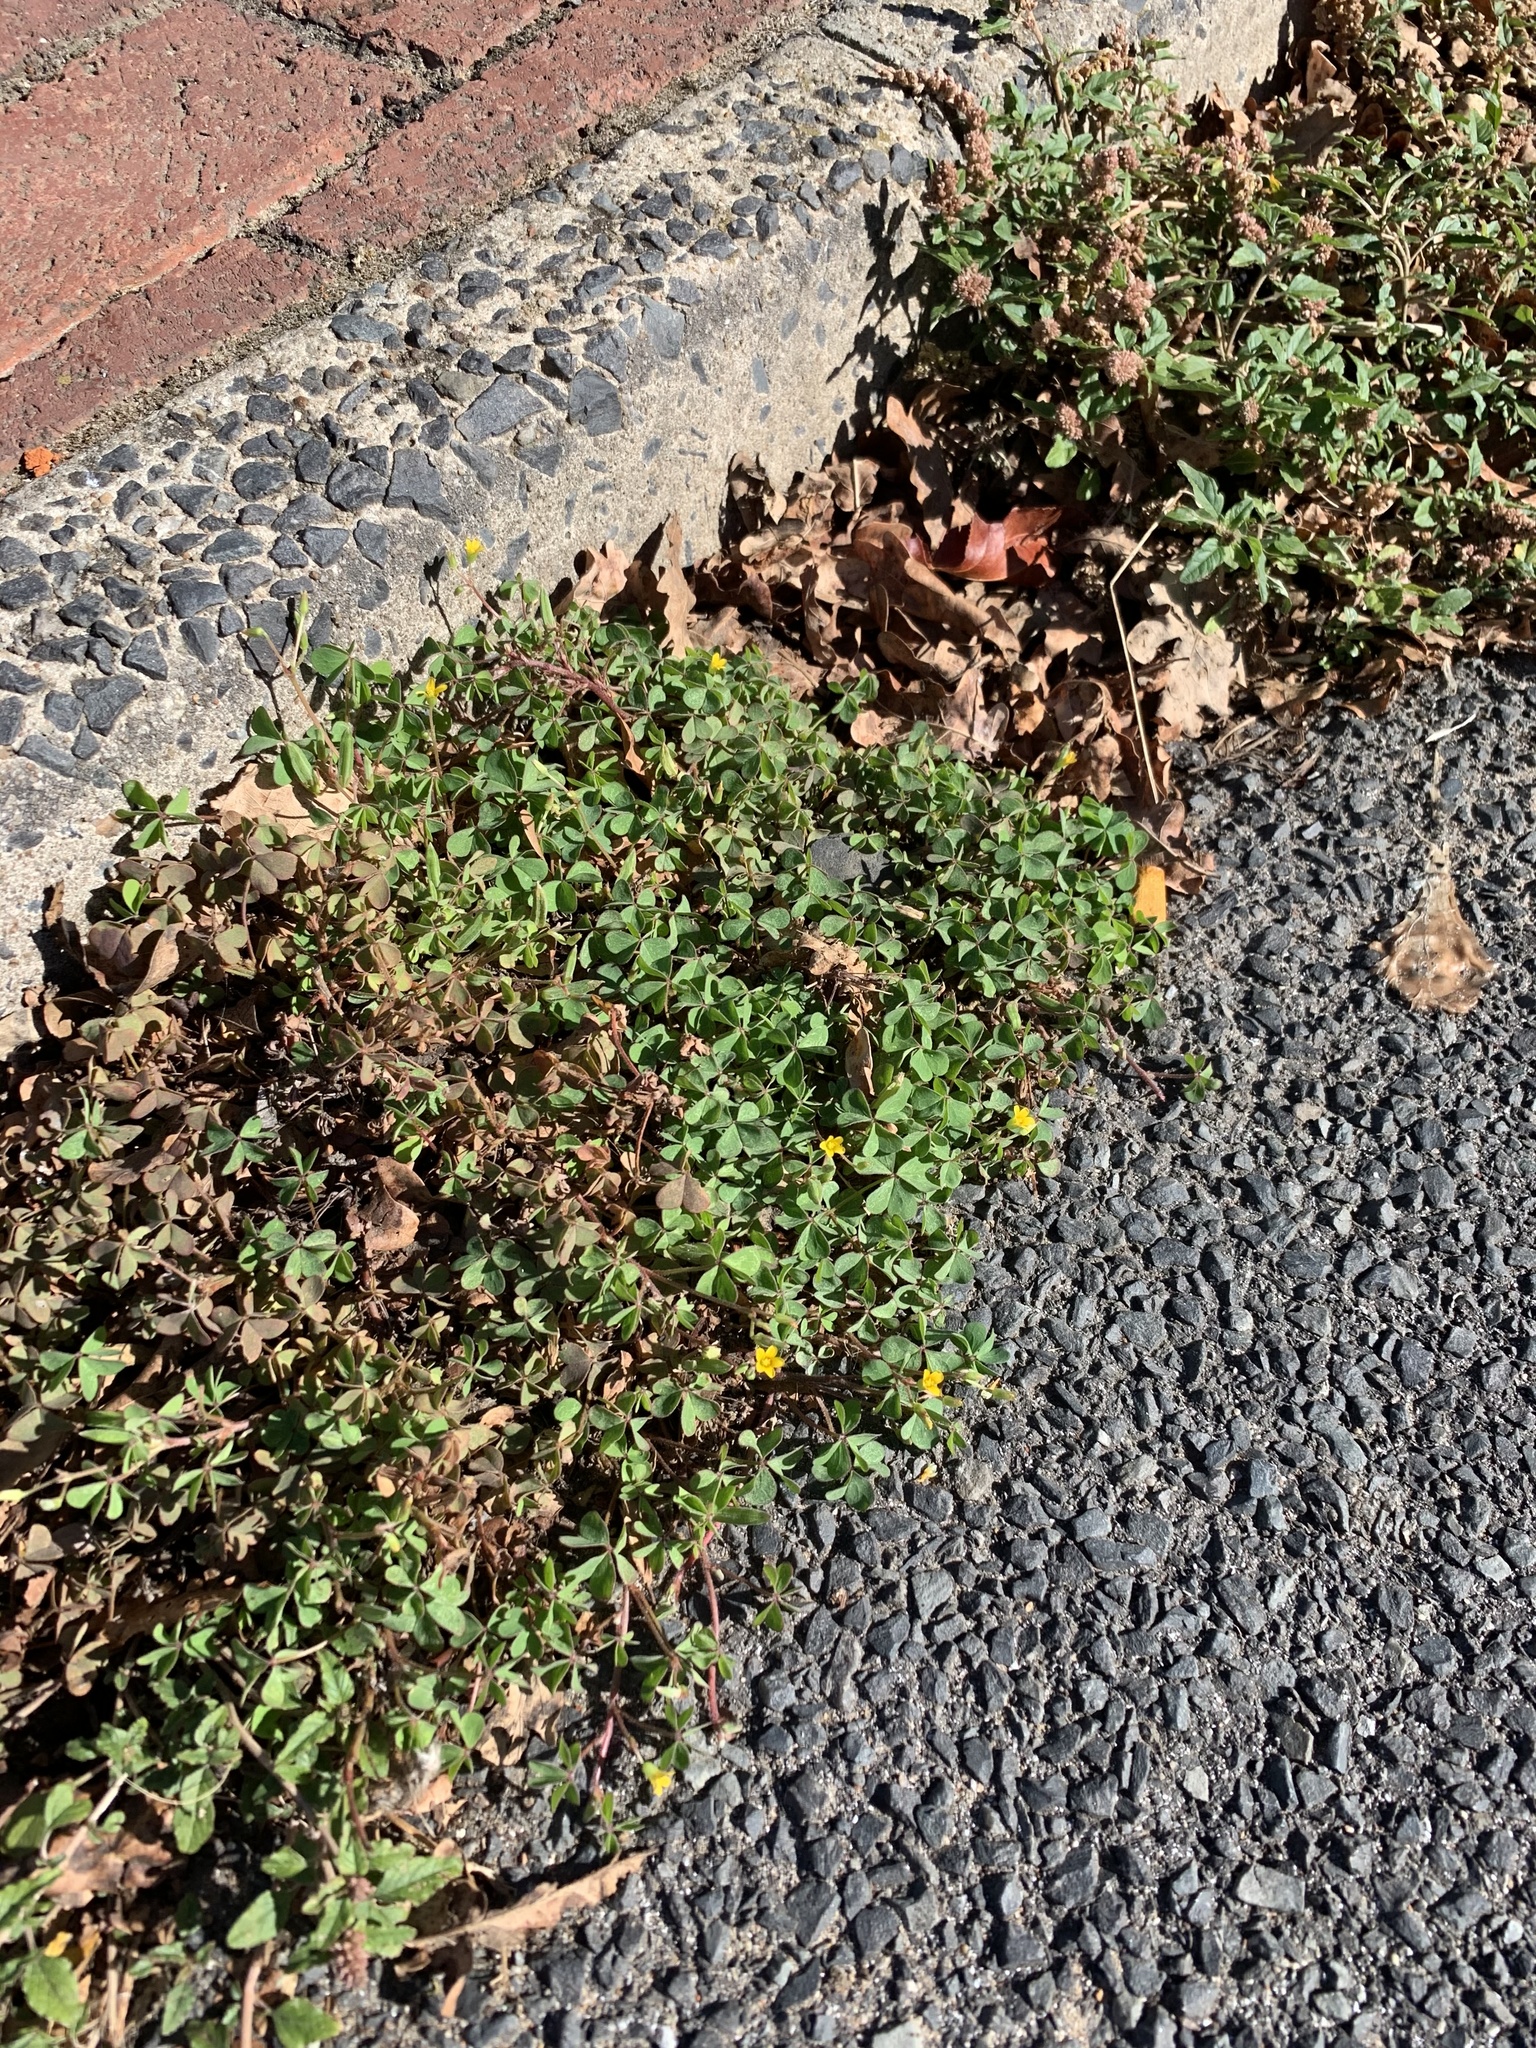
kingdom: Plantae
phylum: Tracheophyta
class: Magnoliopsida
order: Oxalidales
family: Oxalidaceae
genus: Oxalis
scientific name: Oxalis corniculata
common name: Procumbent yellow-sorrel
